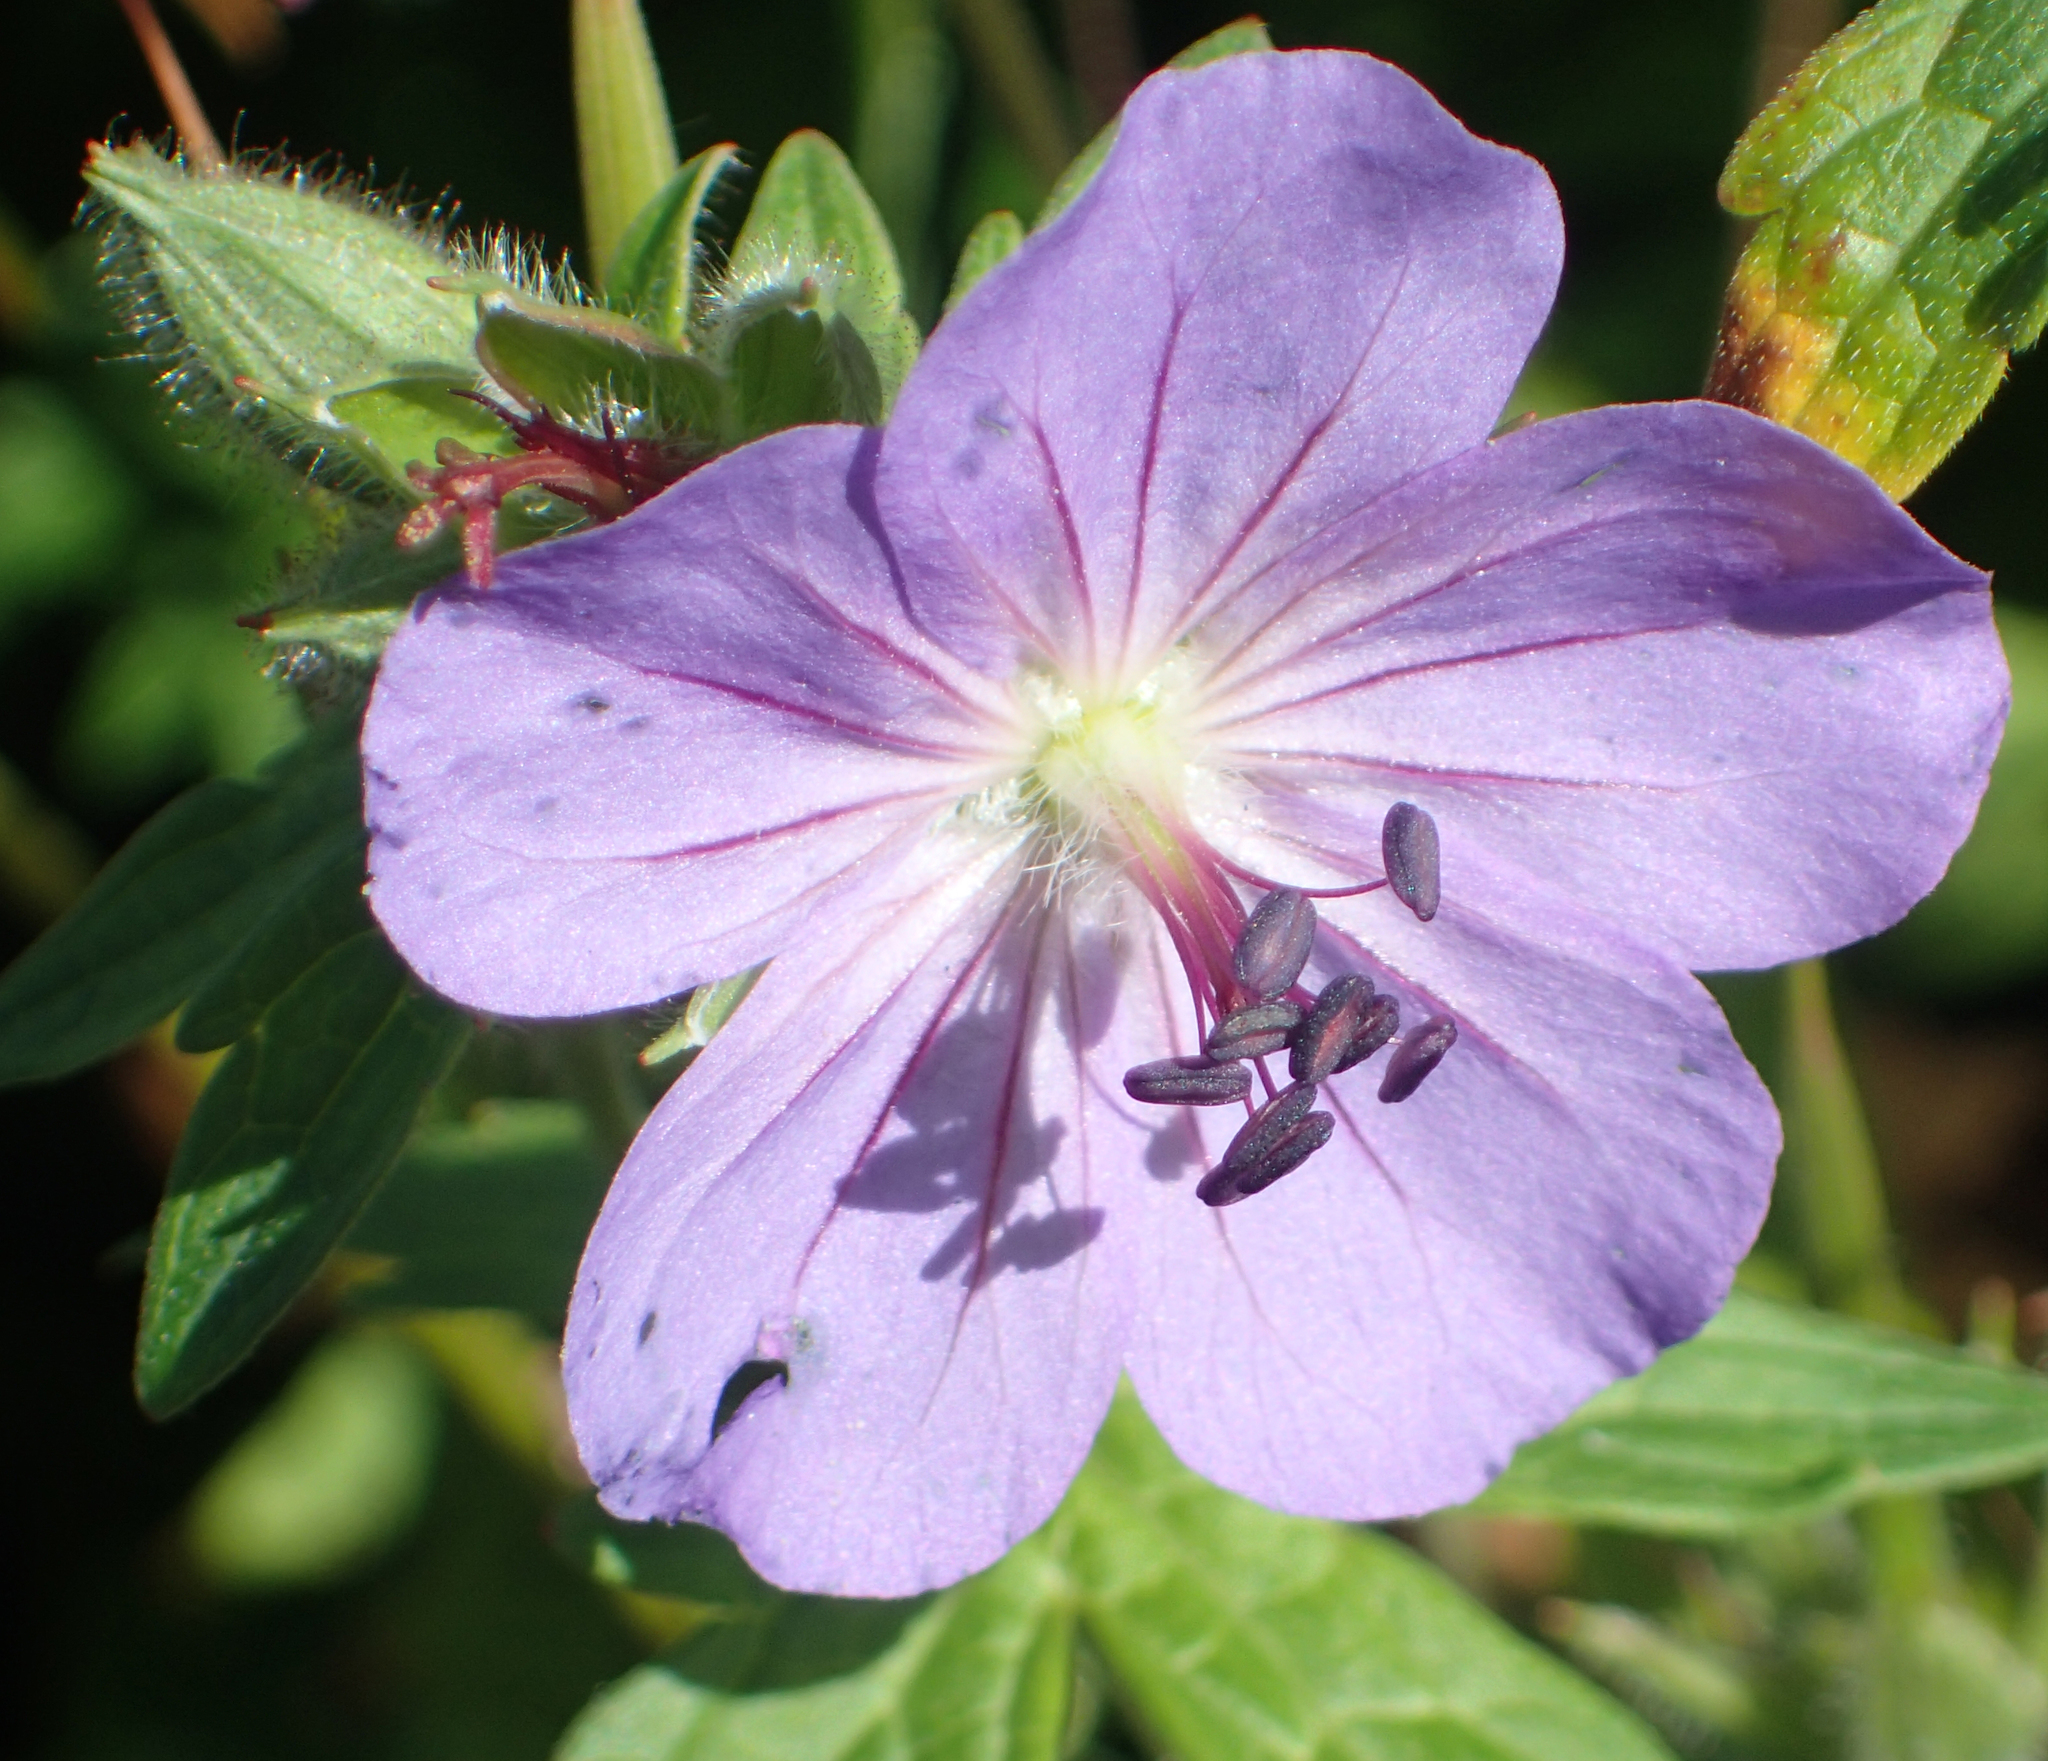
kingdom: Plantae
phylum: Tracheophyta
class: Magnoliopsida
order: Geraniales
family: Geraniaceae
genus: Geranium
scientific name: Geranium erianthum
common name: Northern crane's-bill
